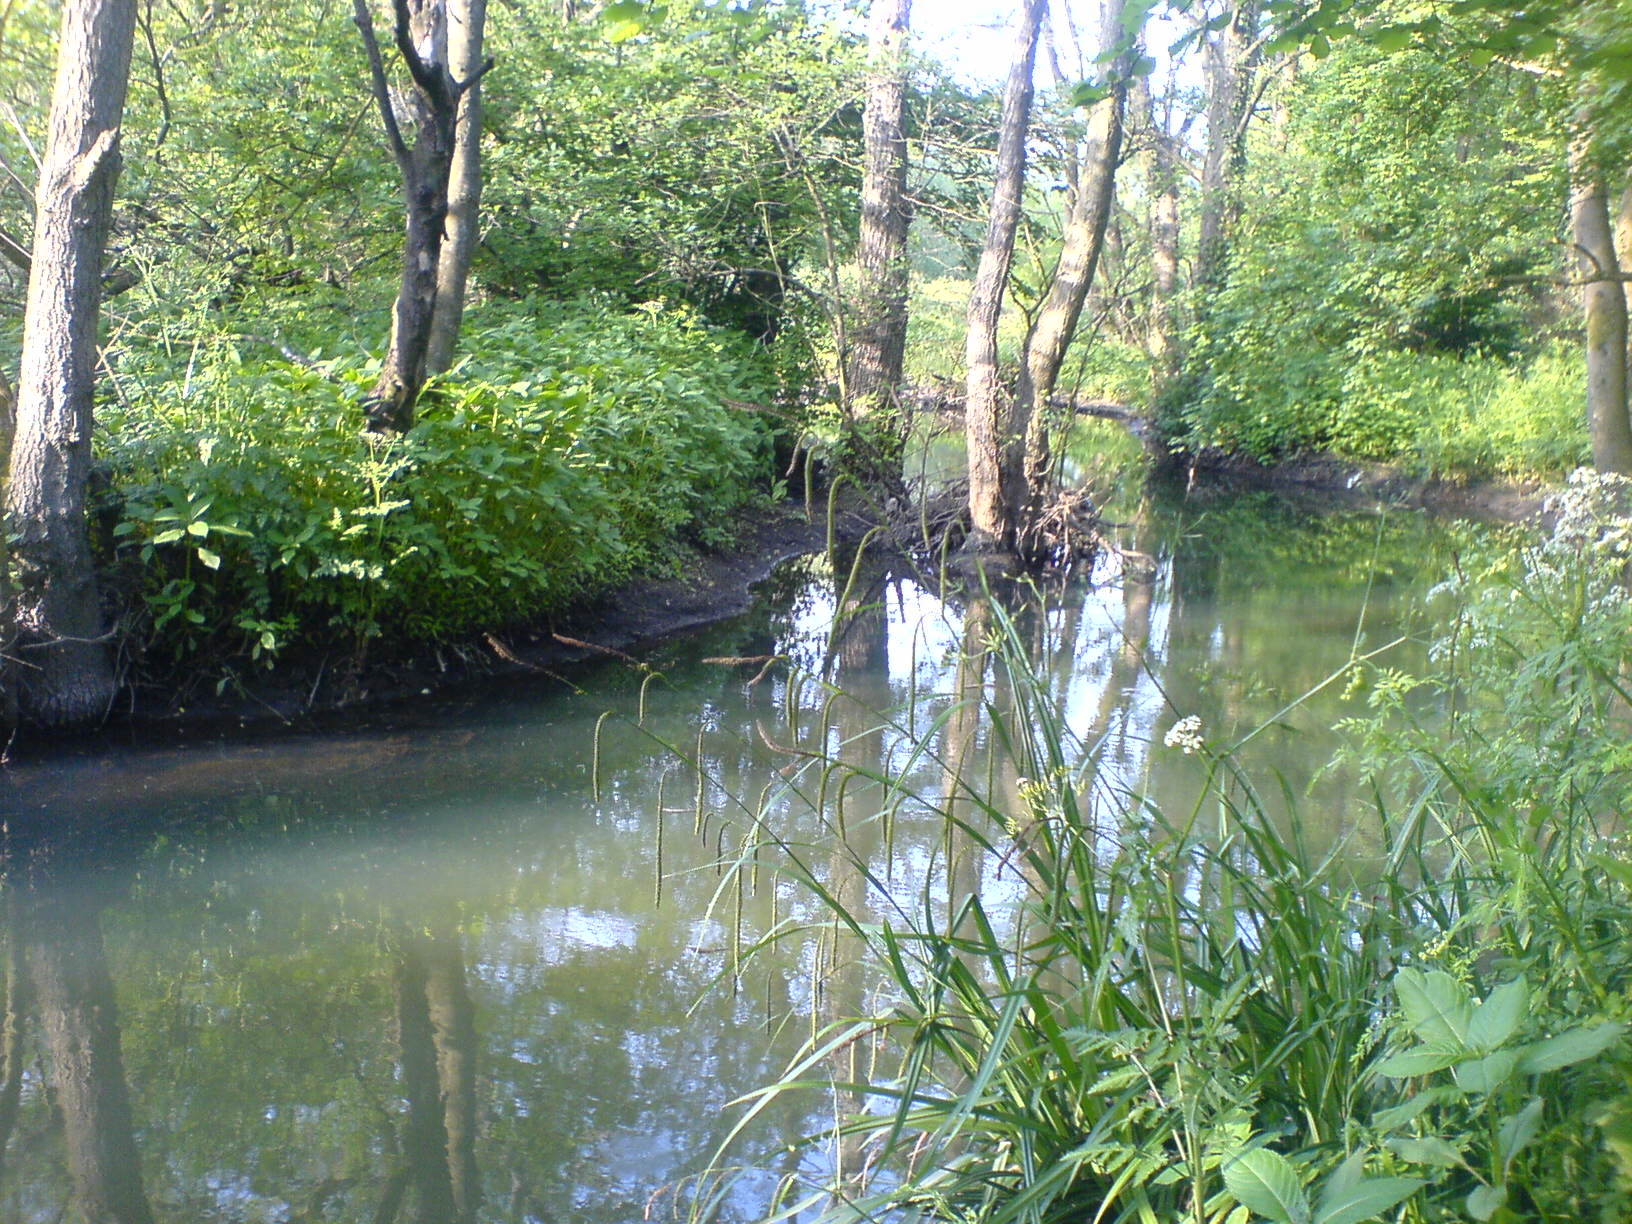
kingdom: Plantae
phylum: Tracheophyta
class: Liliopsida
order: Poales
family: Cyperaceae
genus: Carex
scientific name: Carex pendula
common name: Pendulous sedge
